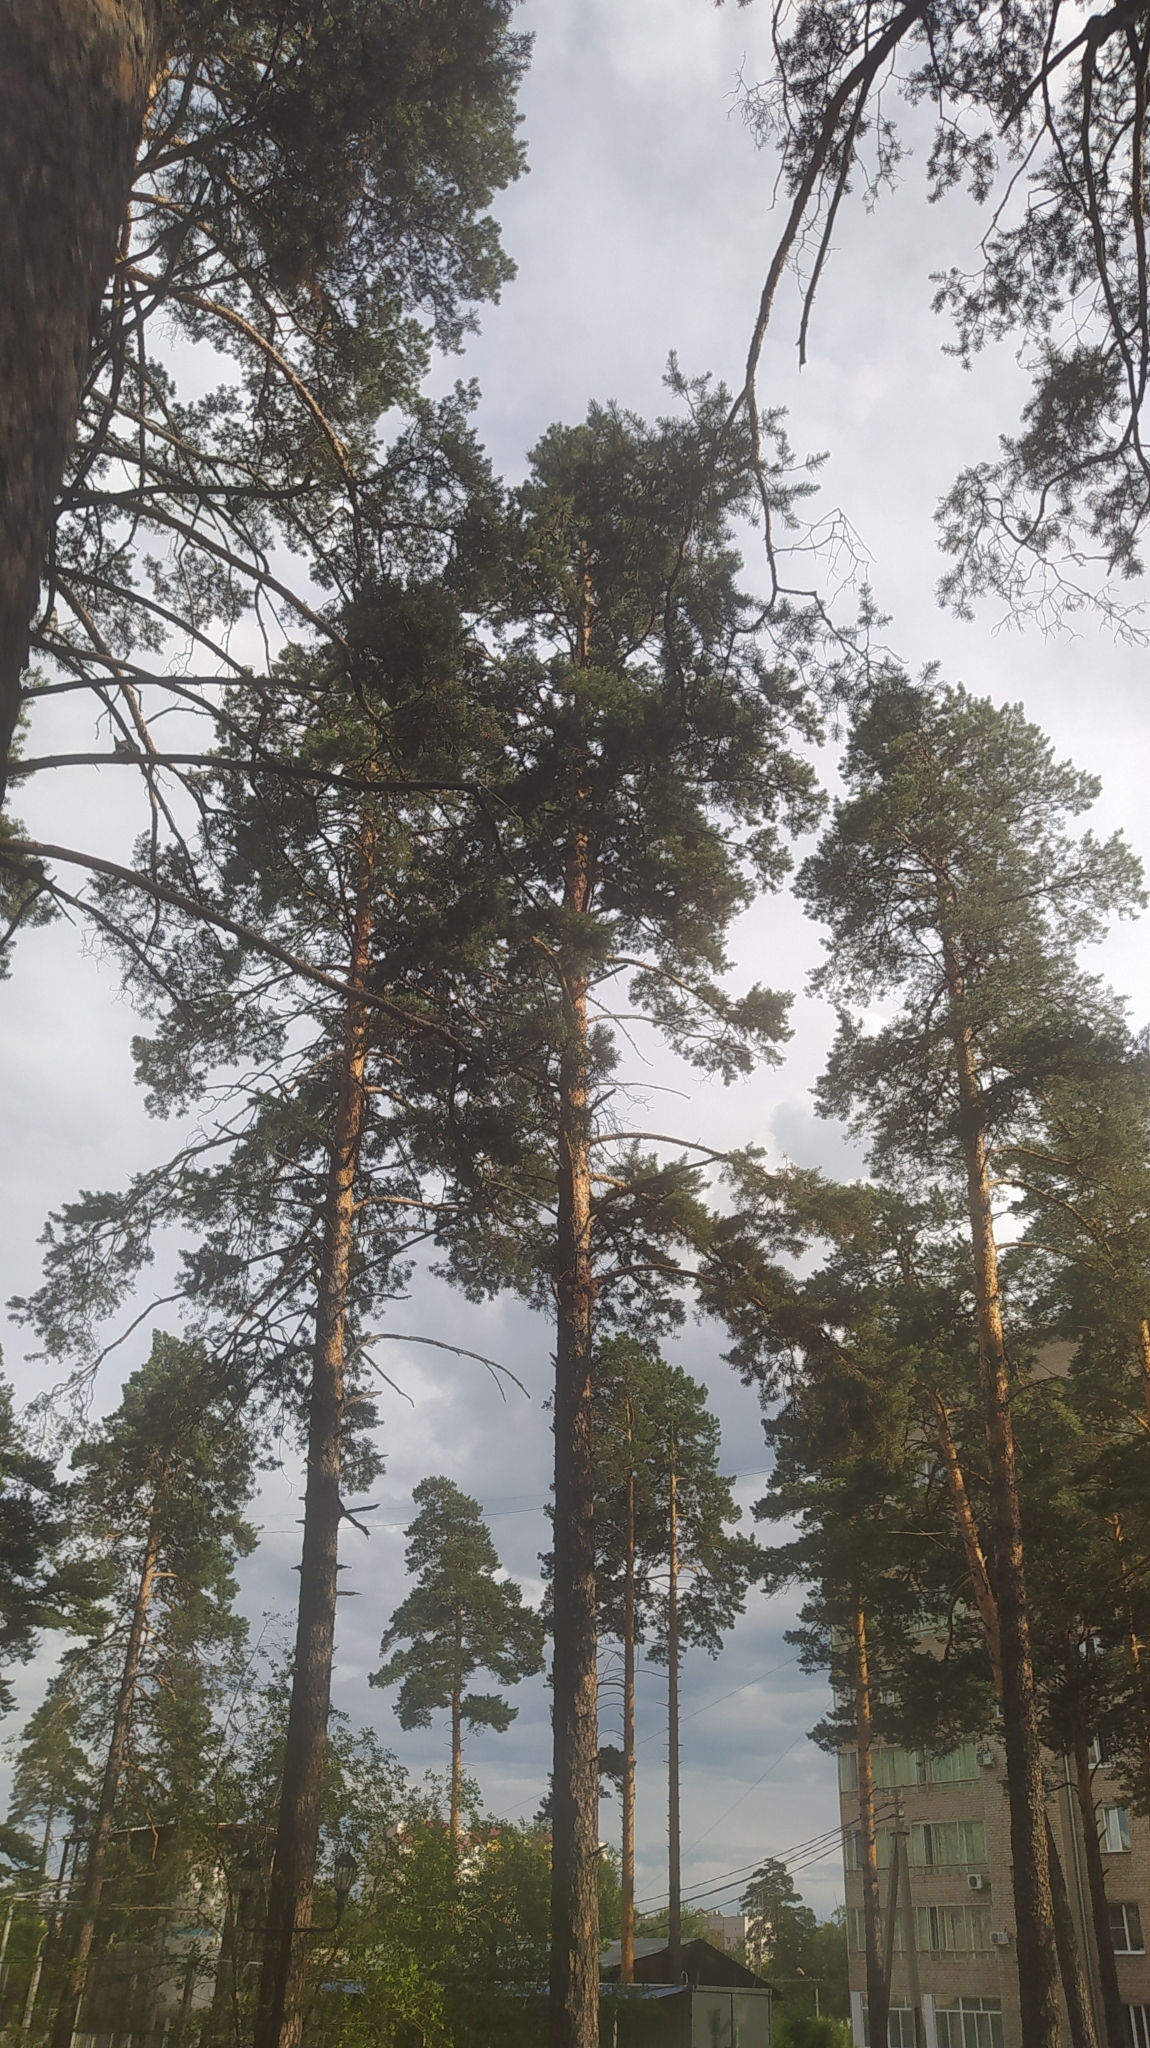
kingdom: Plantae
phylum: Tracheophyta
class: Pinopsida
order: Pinales
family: Pinaceae
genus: Pinus
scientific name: Pinus sylvestris
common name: Scots pine
